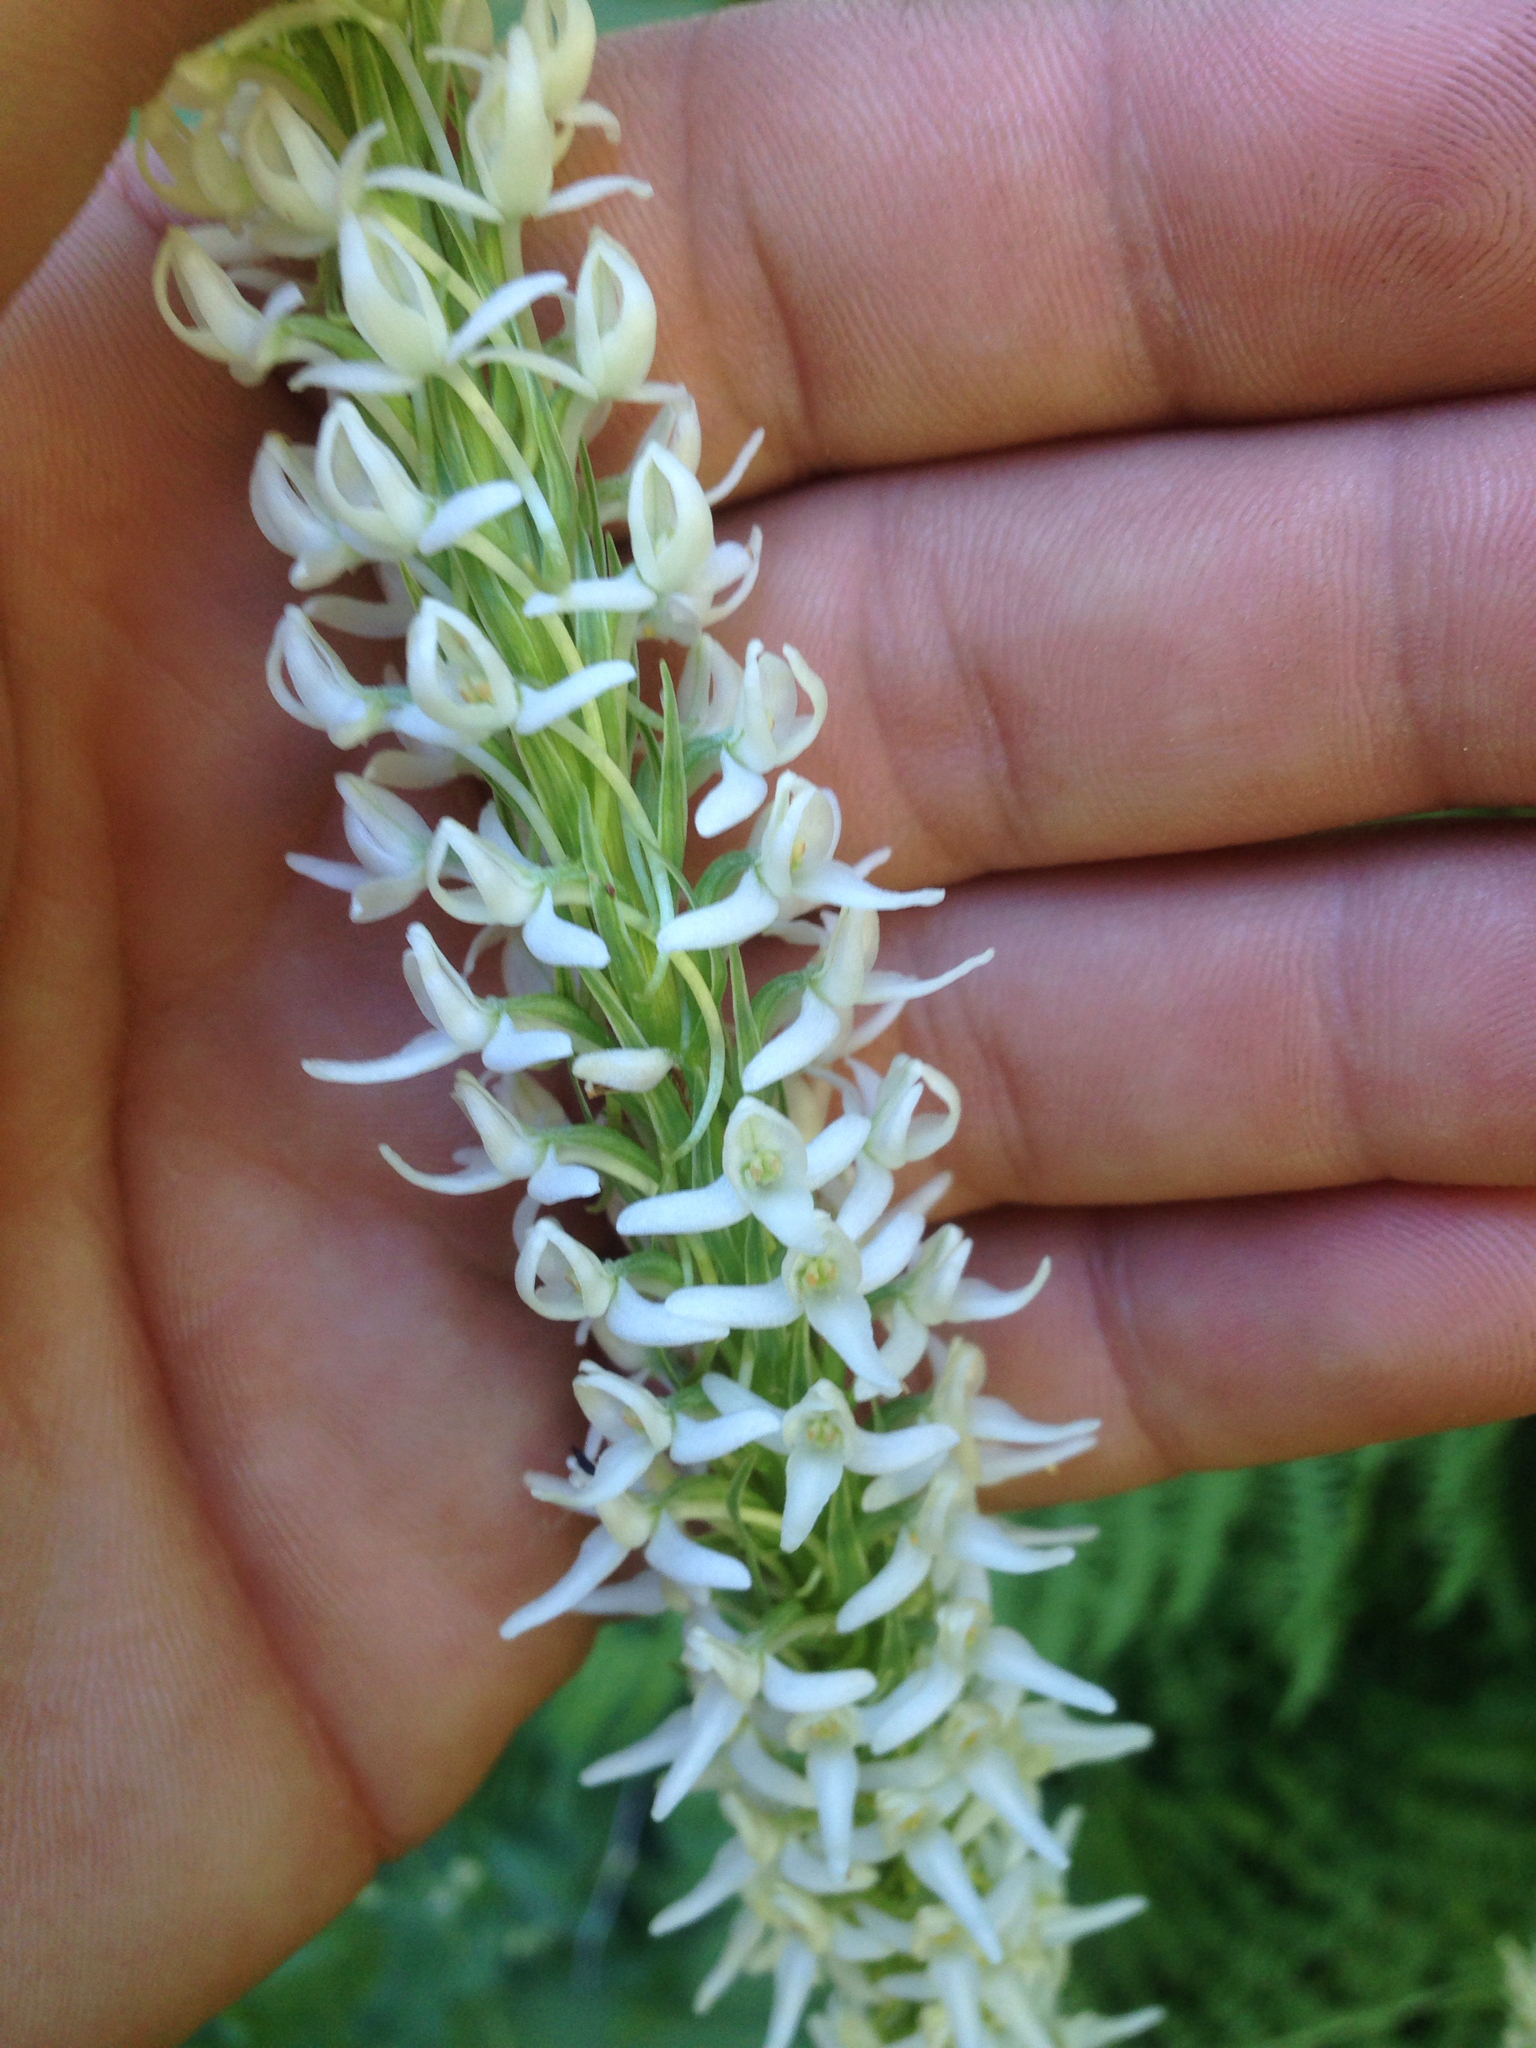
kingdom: Plantae
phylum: Tracheophyta
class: Liliopsida
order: Asparagales
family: Orchidaceae
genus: Platanthera
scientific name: Platanthera dilatata
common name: Bog candles
